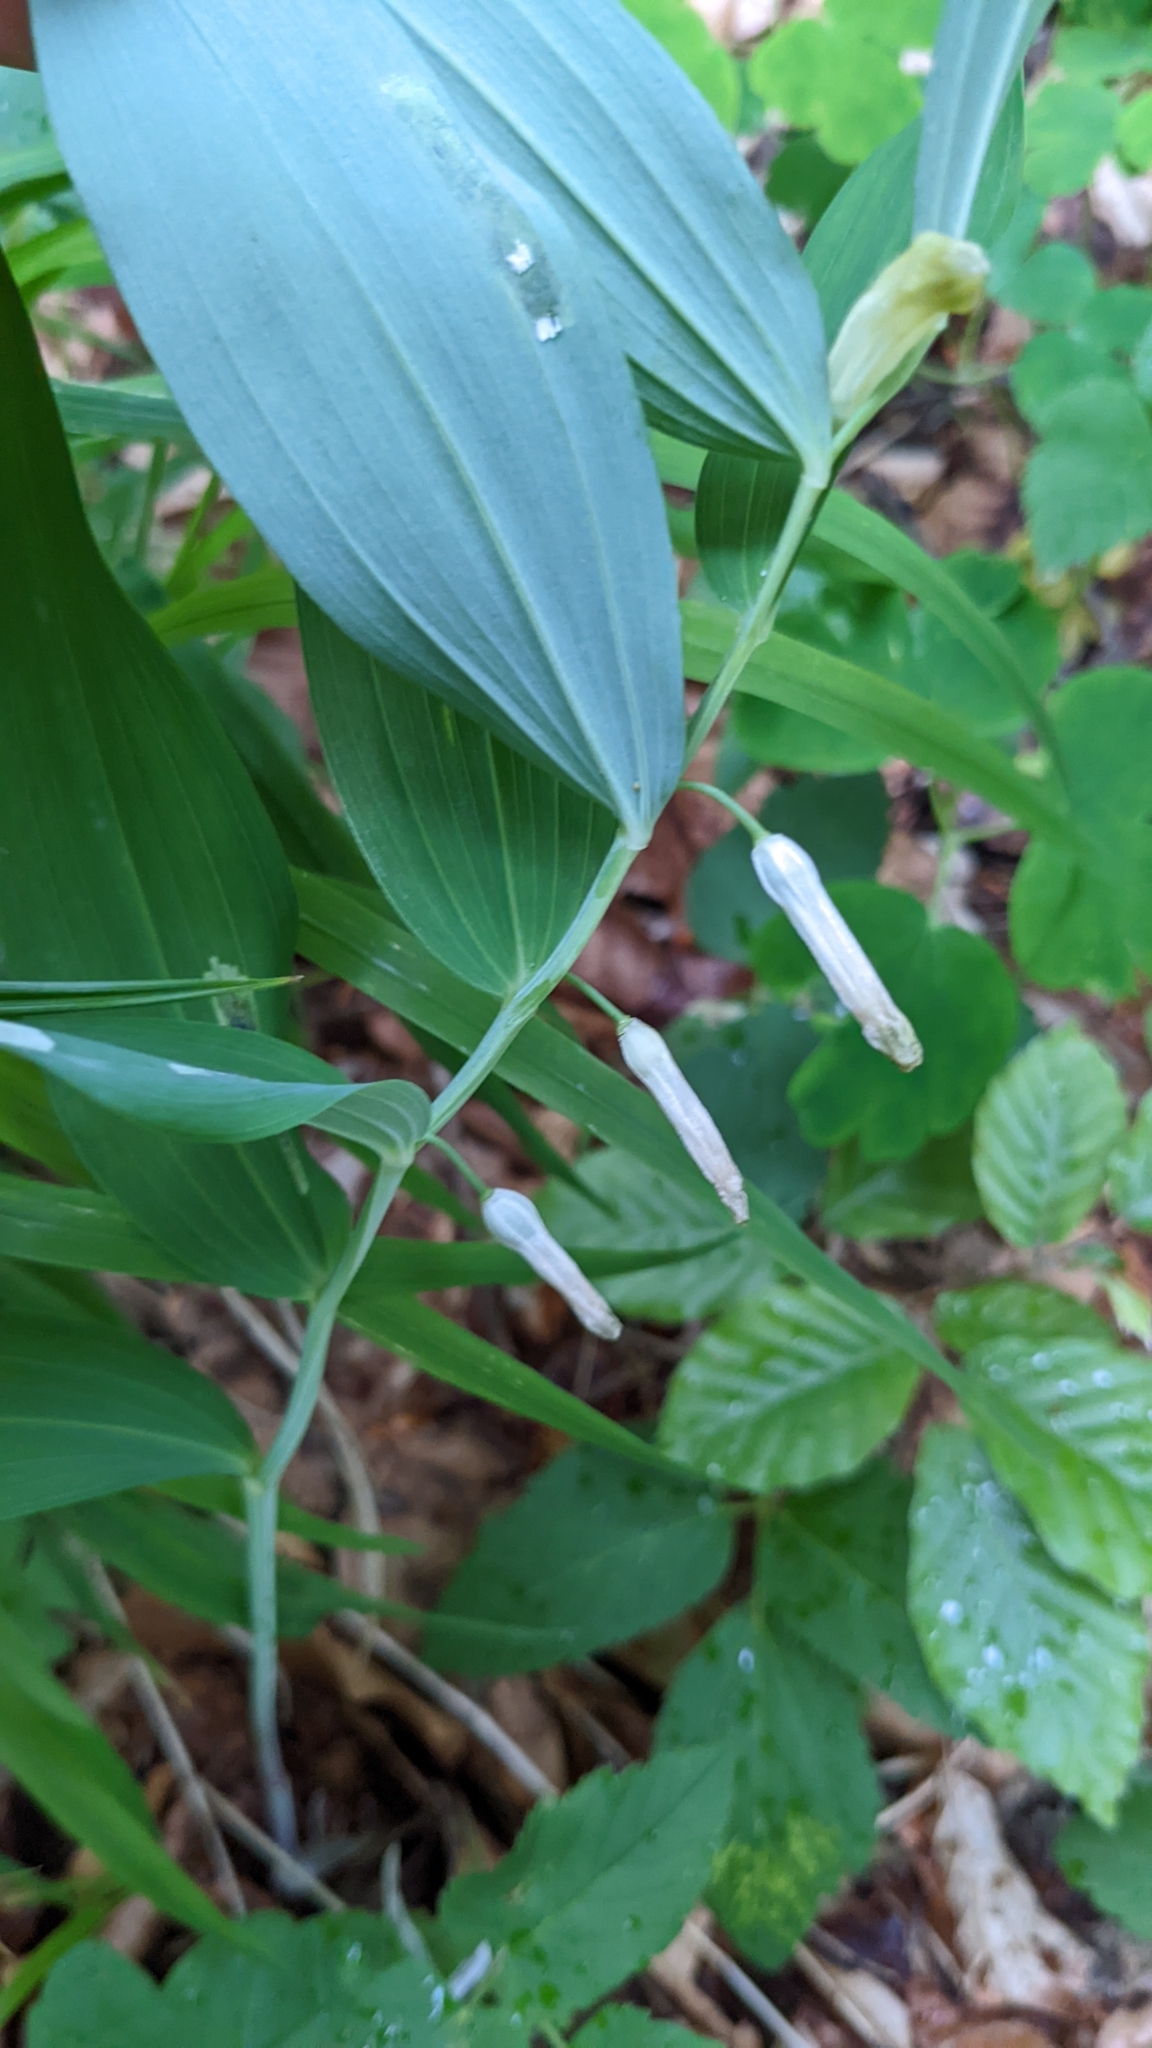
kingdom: Plantae
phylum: Tracheophyta
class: Liliopsida
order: Asparagales
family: Asparagaceae
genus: Polygonatum
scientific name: Polygonatum odoratum
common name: Angular solomon's-seal
